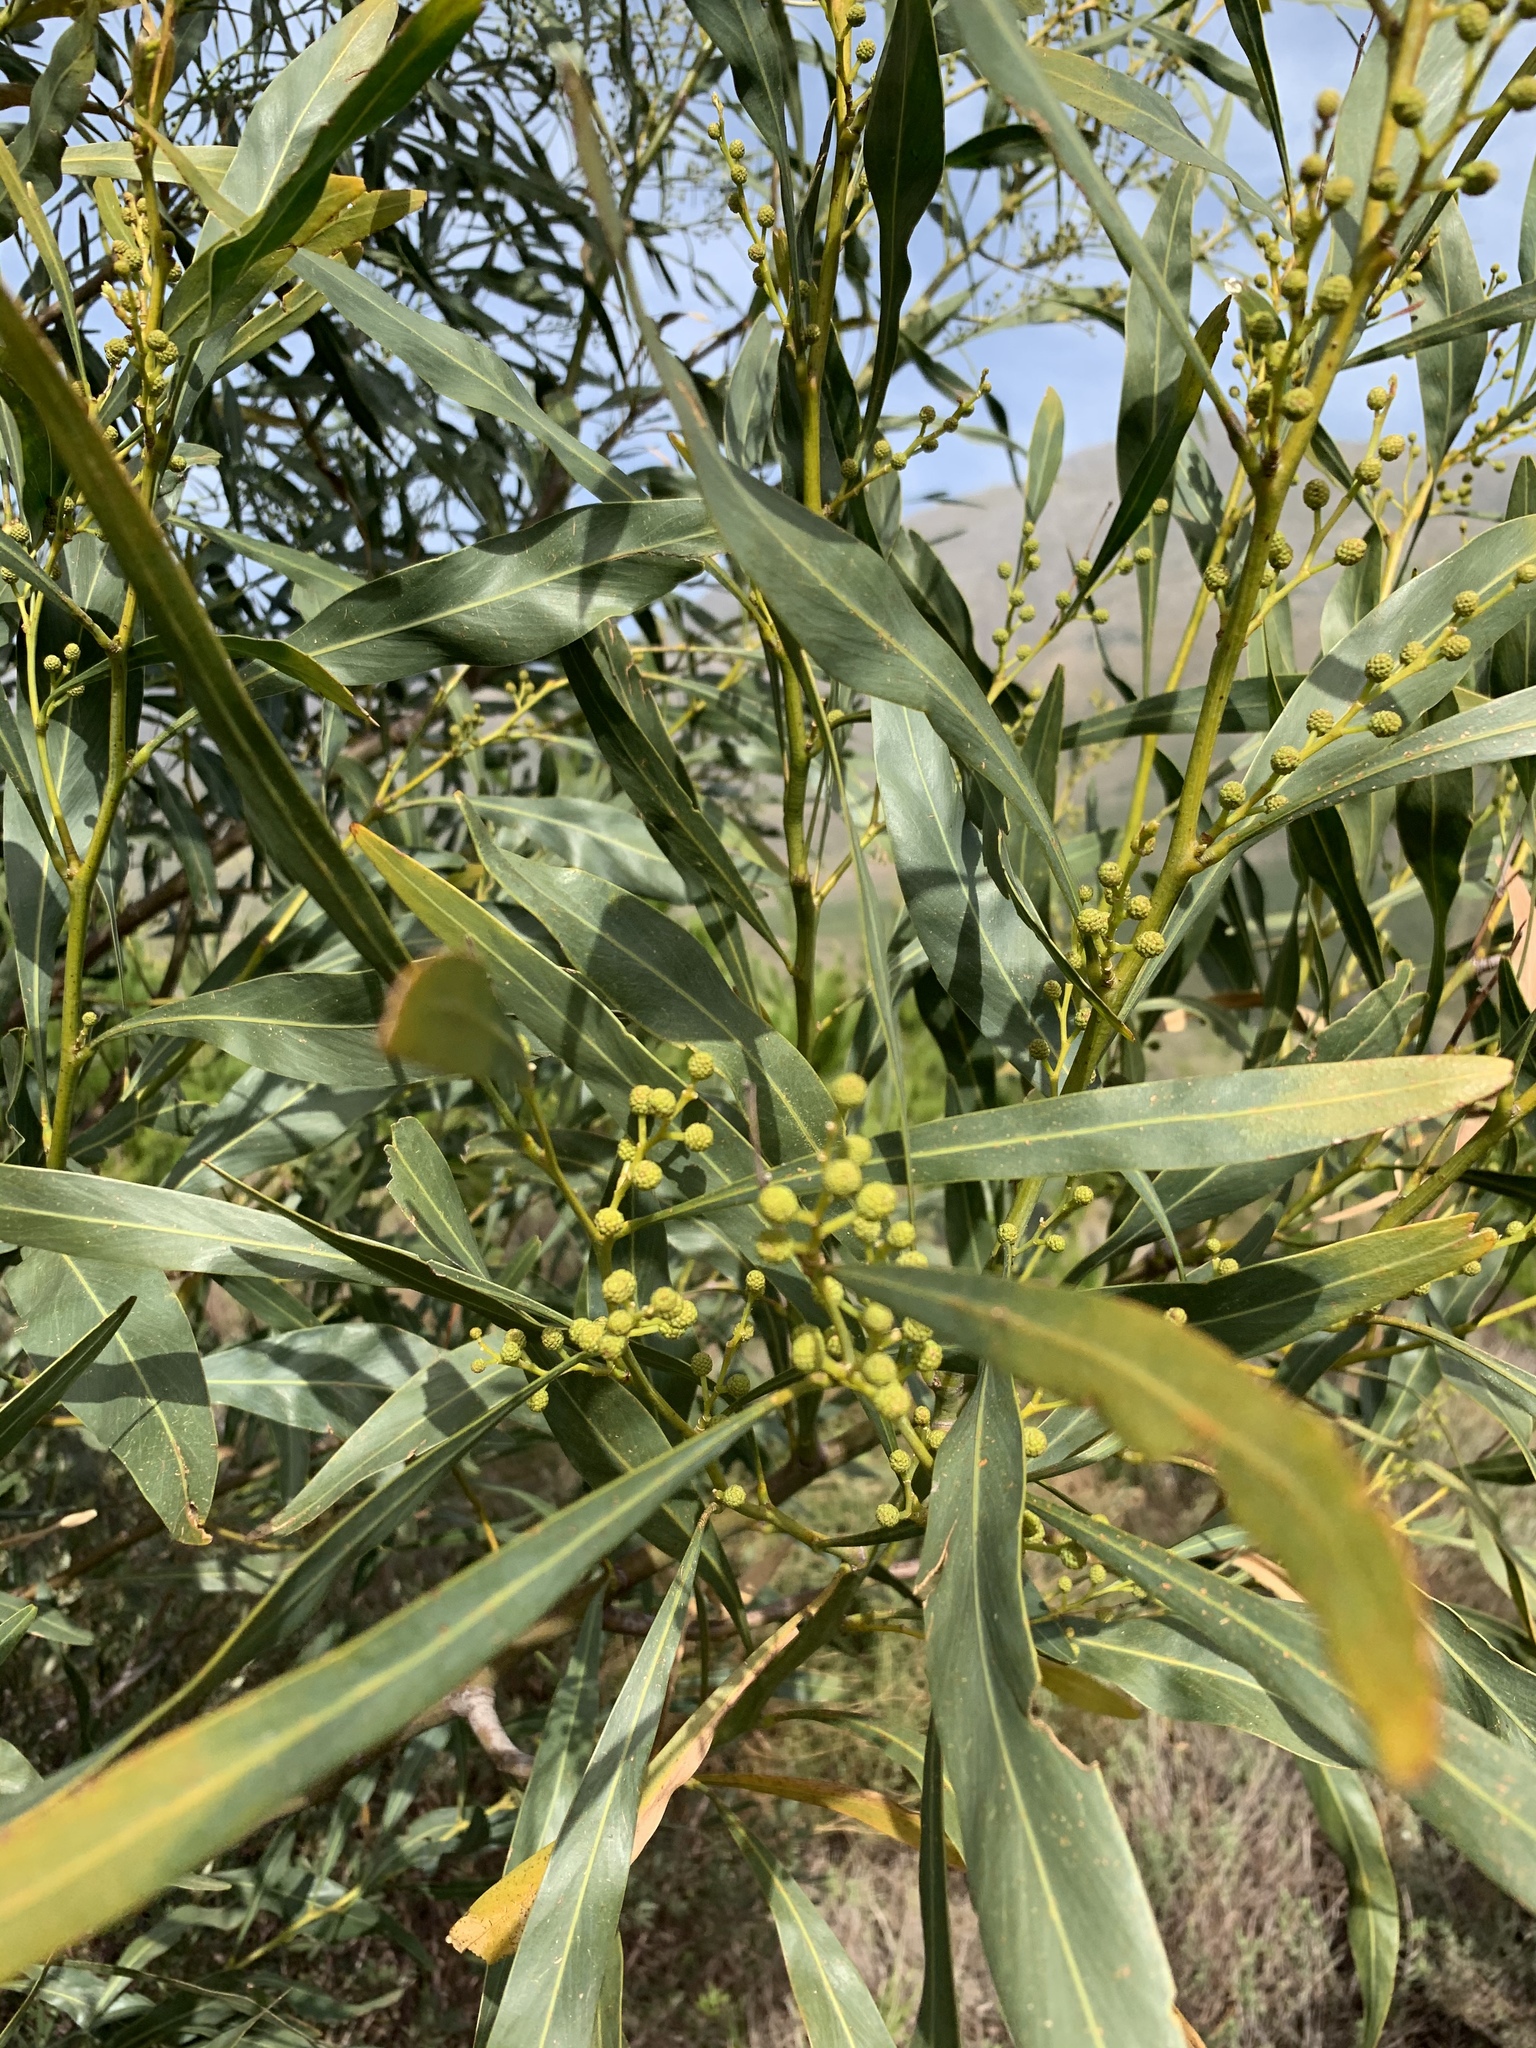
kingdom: Plantae
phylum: Tracheophyta
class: Magnoliopsida
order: Fabales
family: Fabaceae
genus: Acacia
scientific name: Acacia saligna
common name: Orange wattle
